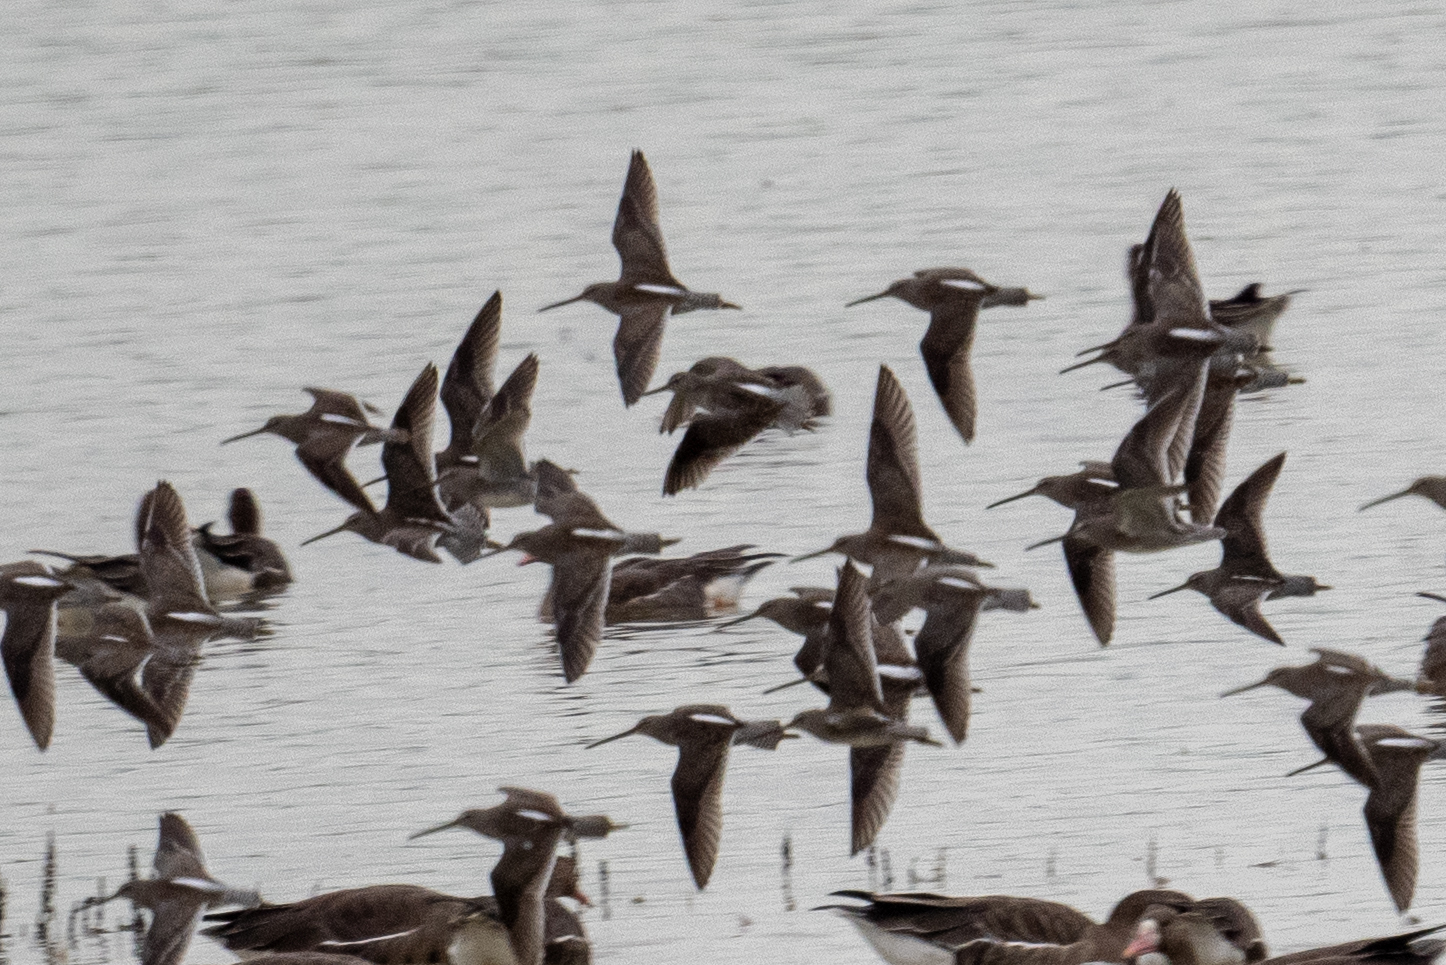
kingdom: Animalia
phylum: Chordata
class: Aves
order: Charadriiformes
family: Scolopacidae
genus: Limnodromus
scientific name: Limnodromus scolopaceus
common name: Long-billed dowitcher
